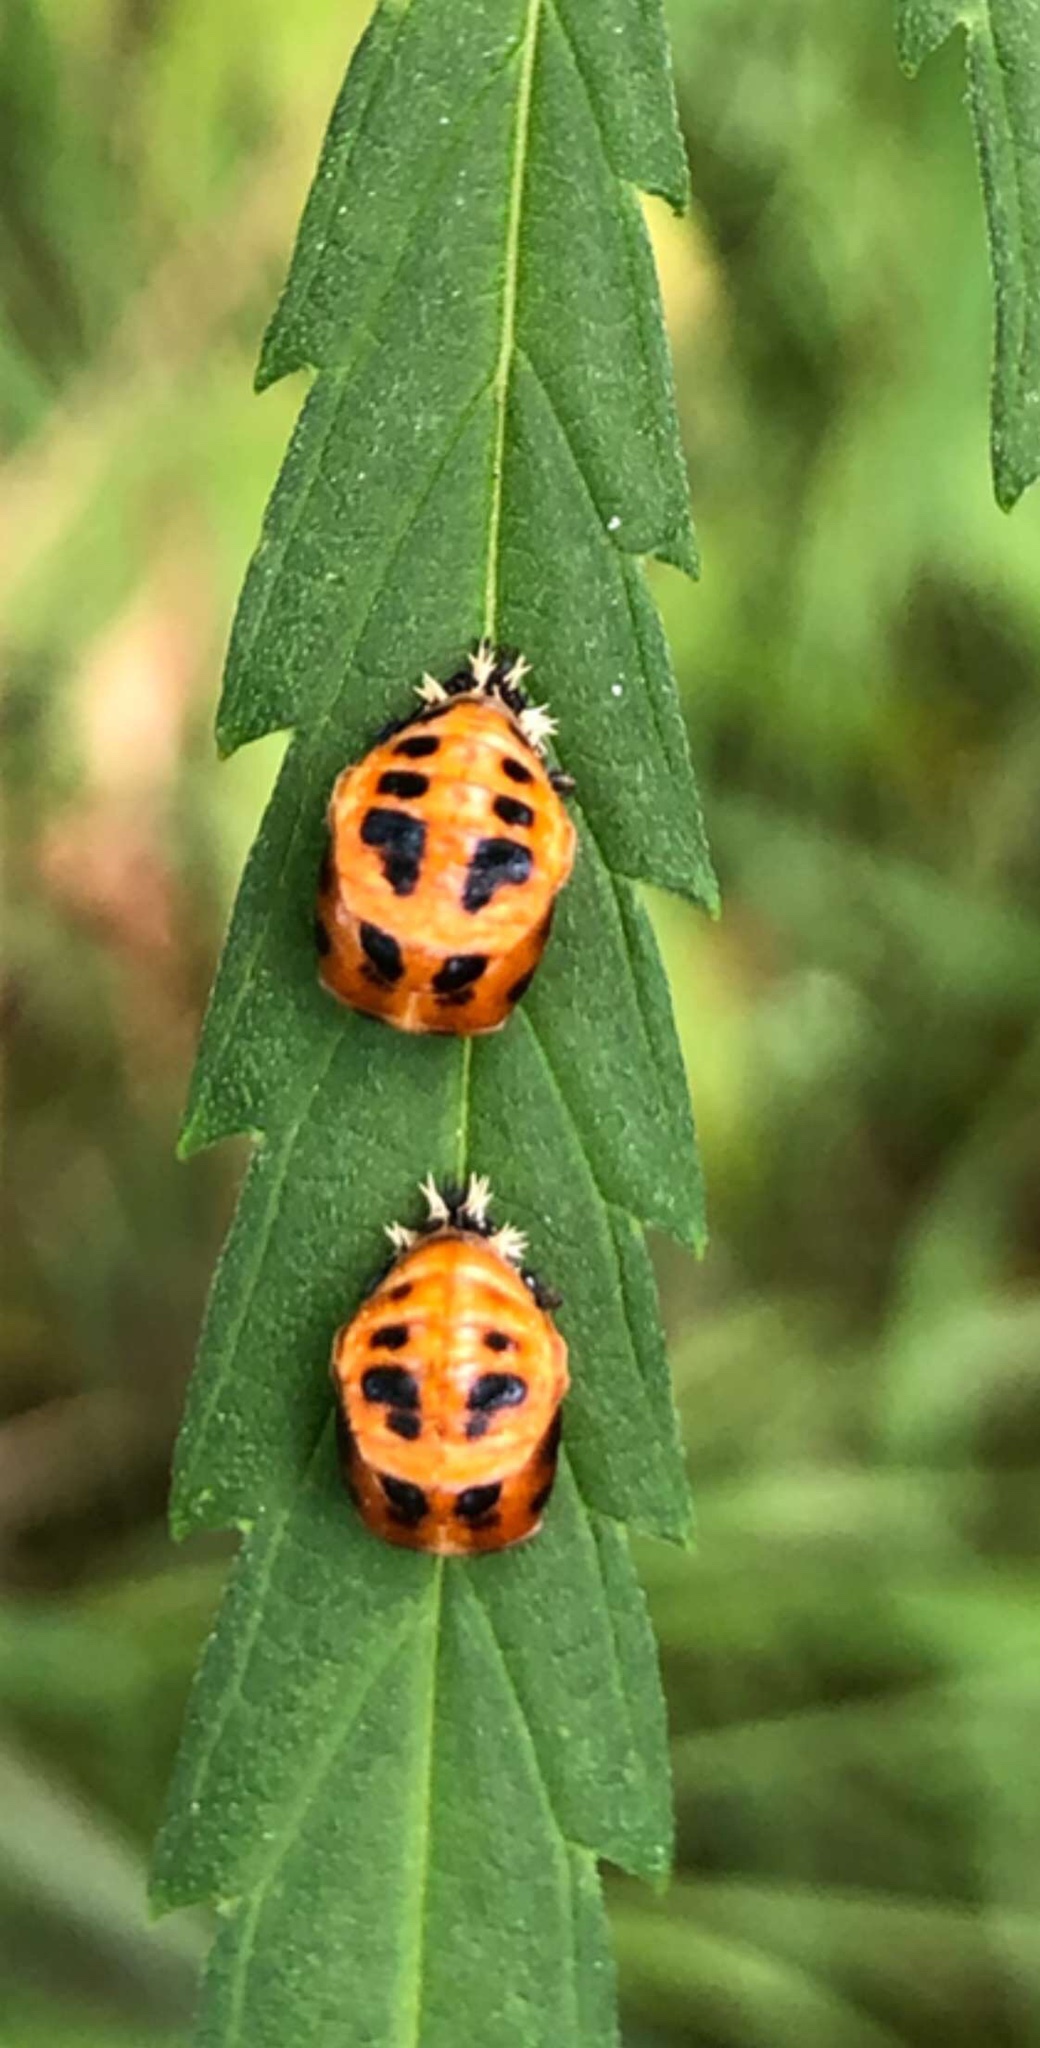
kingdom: Animalia
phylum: Arthropoda
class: Insecta
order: Coleoptera
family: Coccinellidae
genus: Harmonia
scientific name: Harmonia axyridis
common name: Harlequin ladybird
